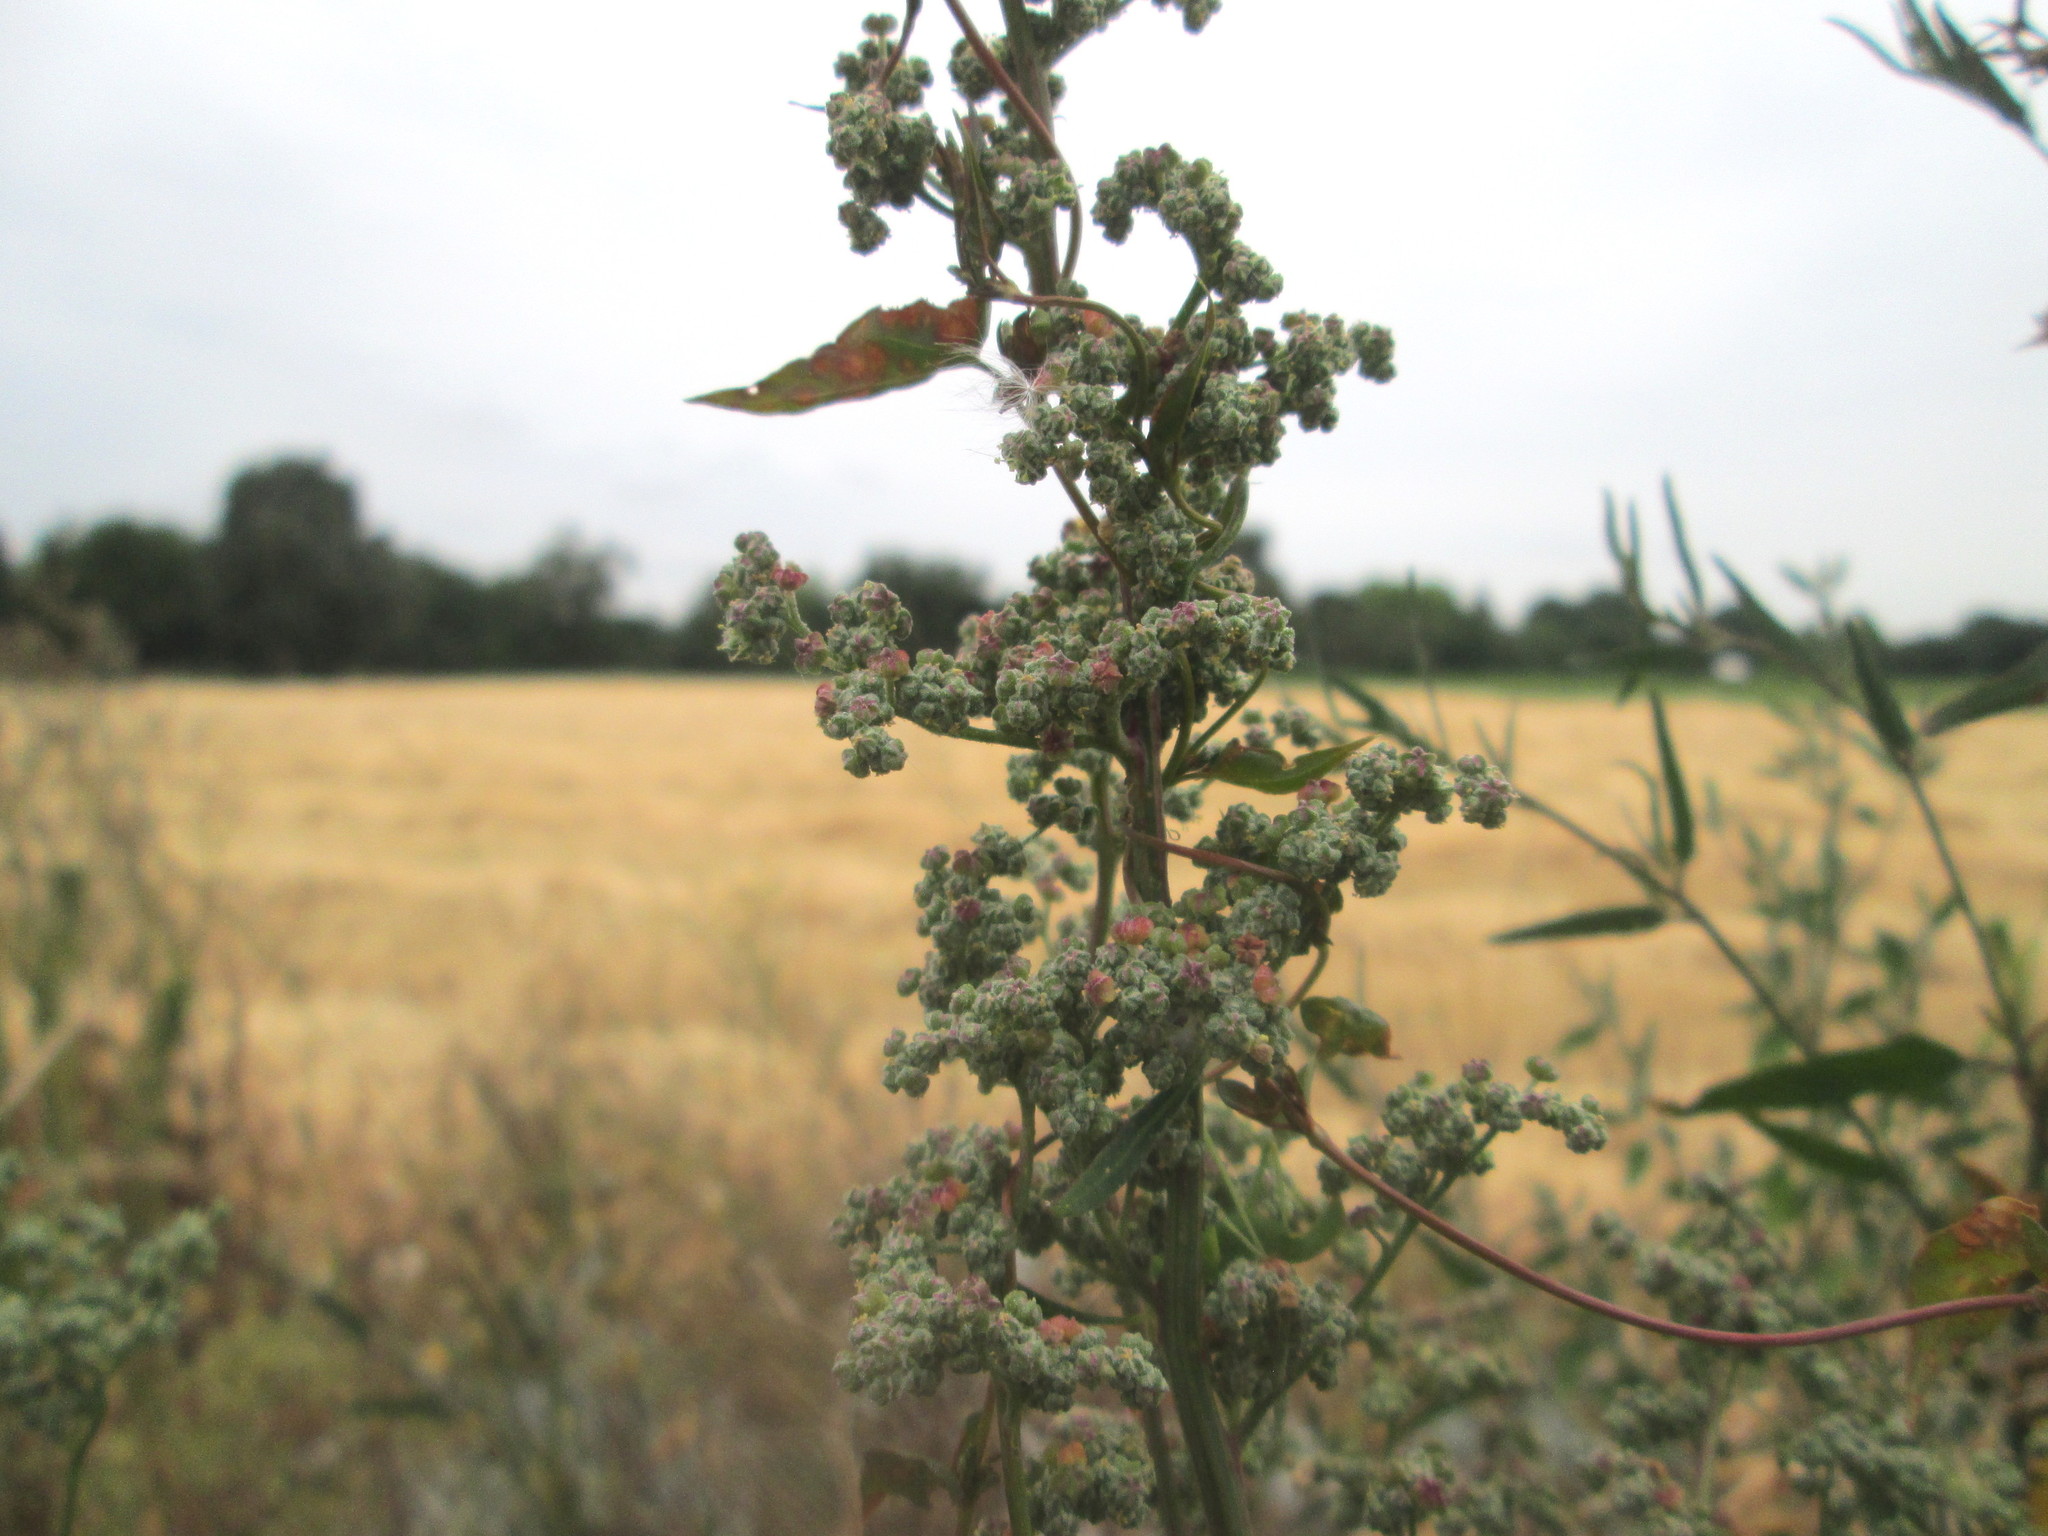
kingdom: Plantae
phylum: Tracheophyta
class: Magnoliopsida
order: Caryophyllales
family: Amaranthaceae
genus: Chenopodium
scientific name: Chenopodium album
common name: Fat-hen
